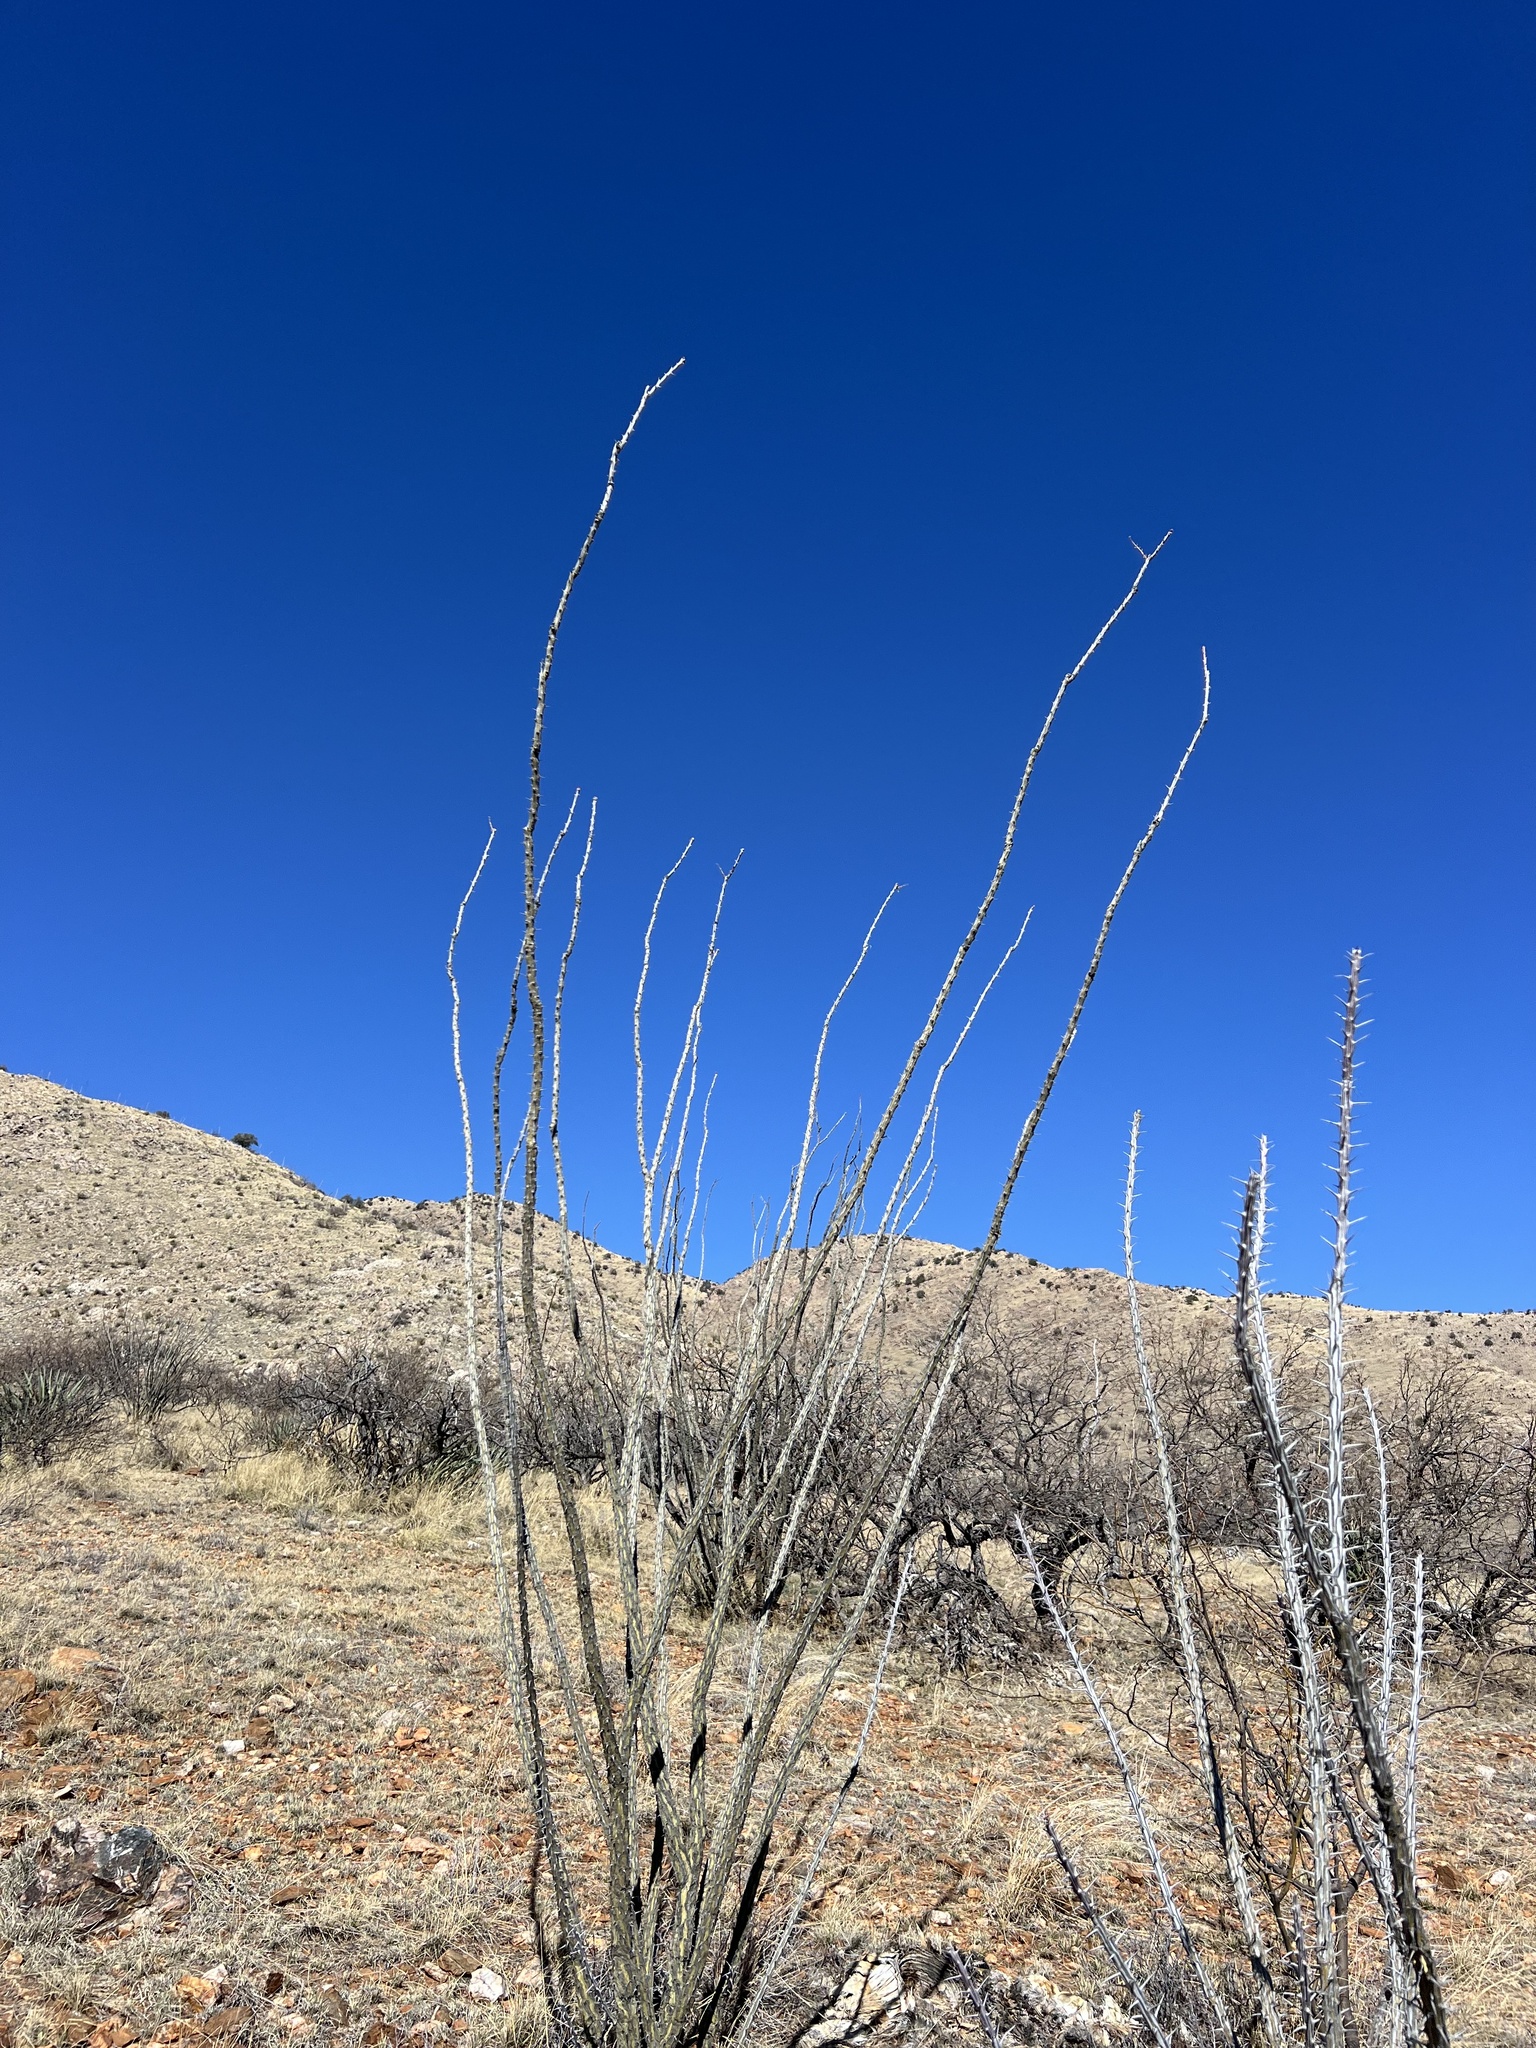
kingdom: Plantae
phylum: Tracheophyta
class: Magnoliopsida
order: Ericales
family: Fouquieriaceae
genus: Fouquieria
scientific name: Fouquieria splendens
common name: Vine-cactus
